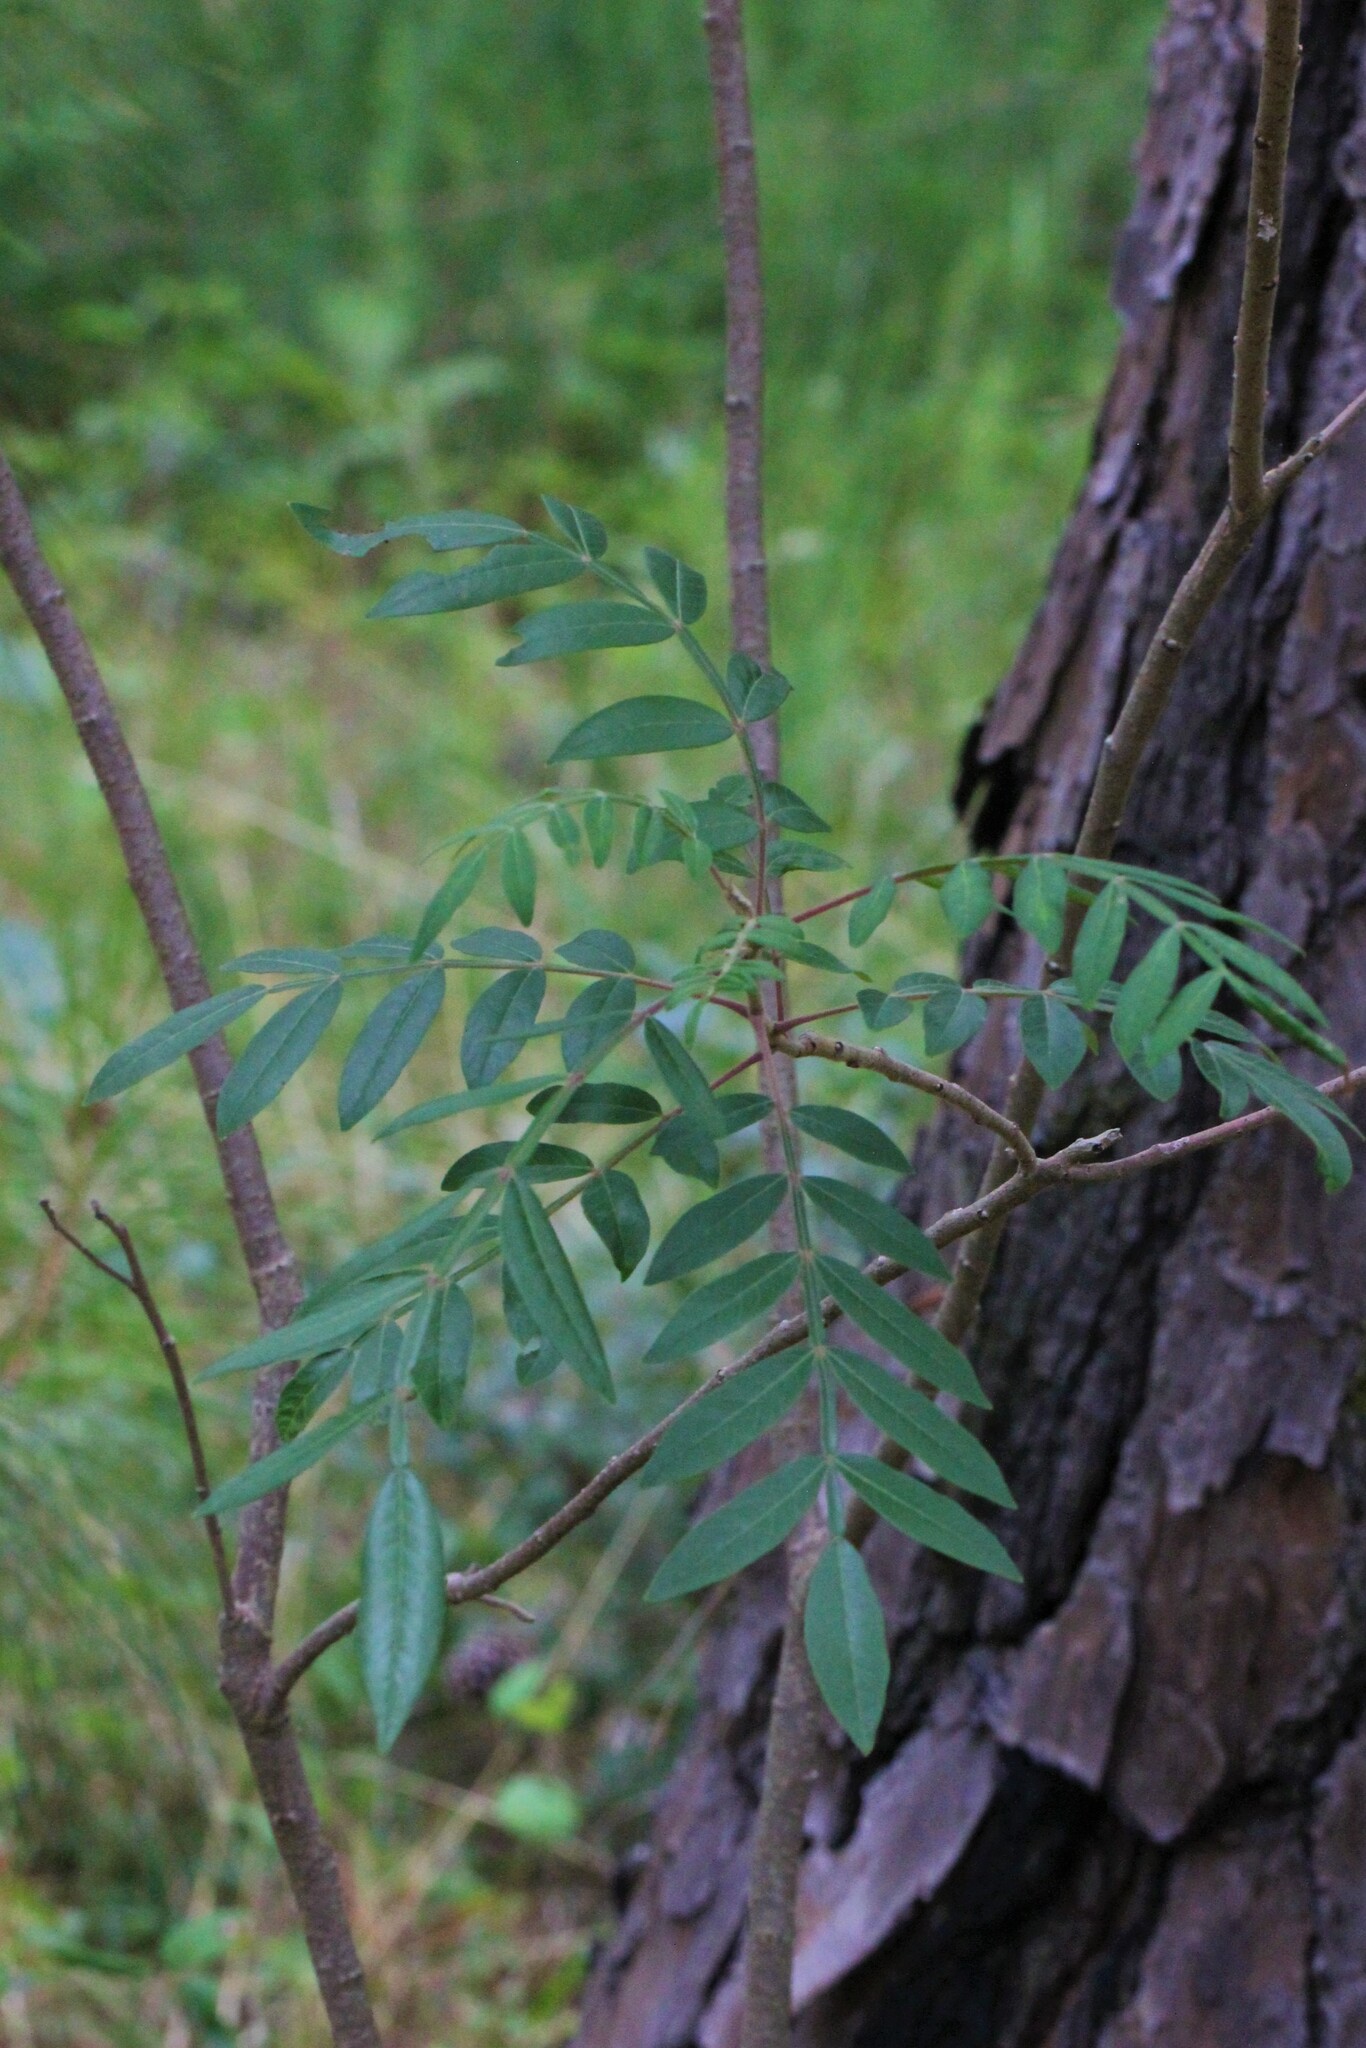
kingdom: Plantae
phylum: Tracheophyta
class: Magnoliopsida
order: Sapindales
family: Anacardiaceae
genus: Rhus
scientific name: Rhus copallina
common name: Shining sumac
